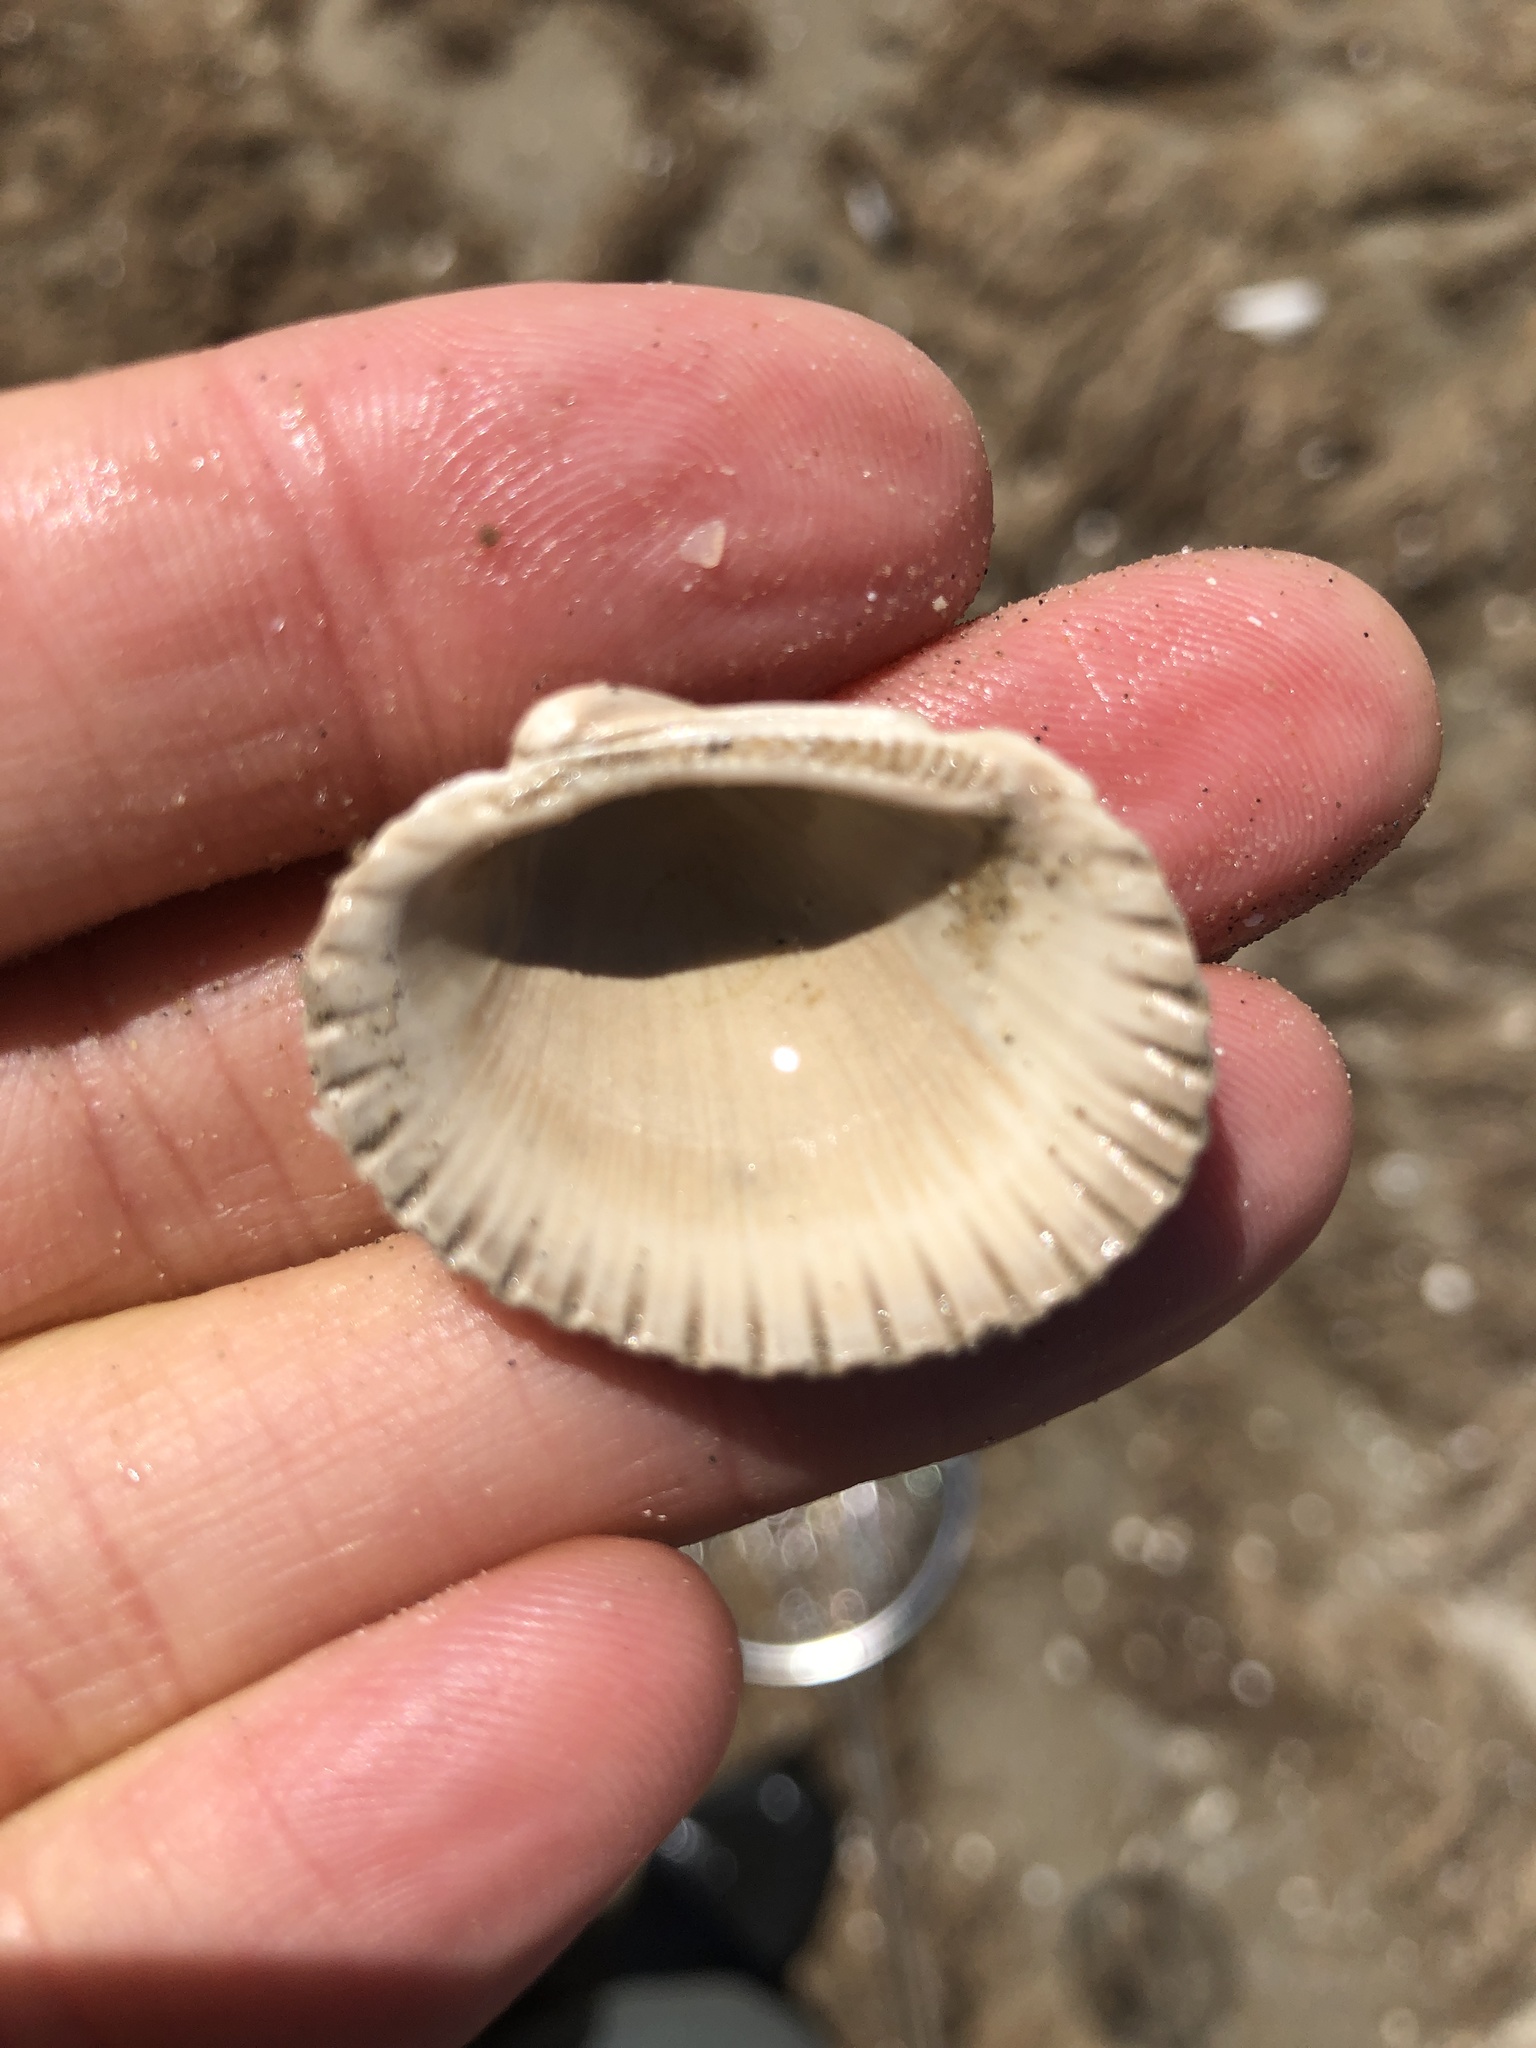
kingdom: Animalia
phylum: Mollusca
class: Bivalvia
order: Arcida
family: Arcidae
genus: Lunarca
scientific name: Lunarca ovalis
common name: Blood ark
